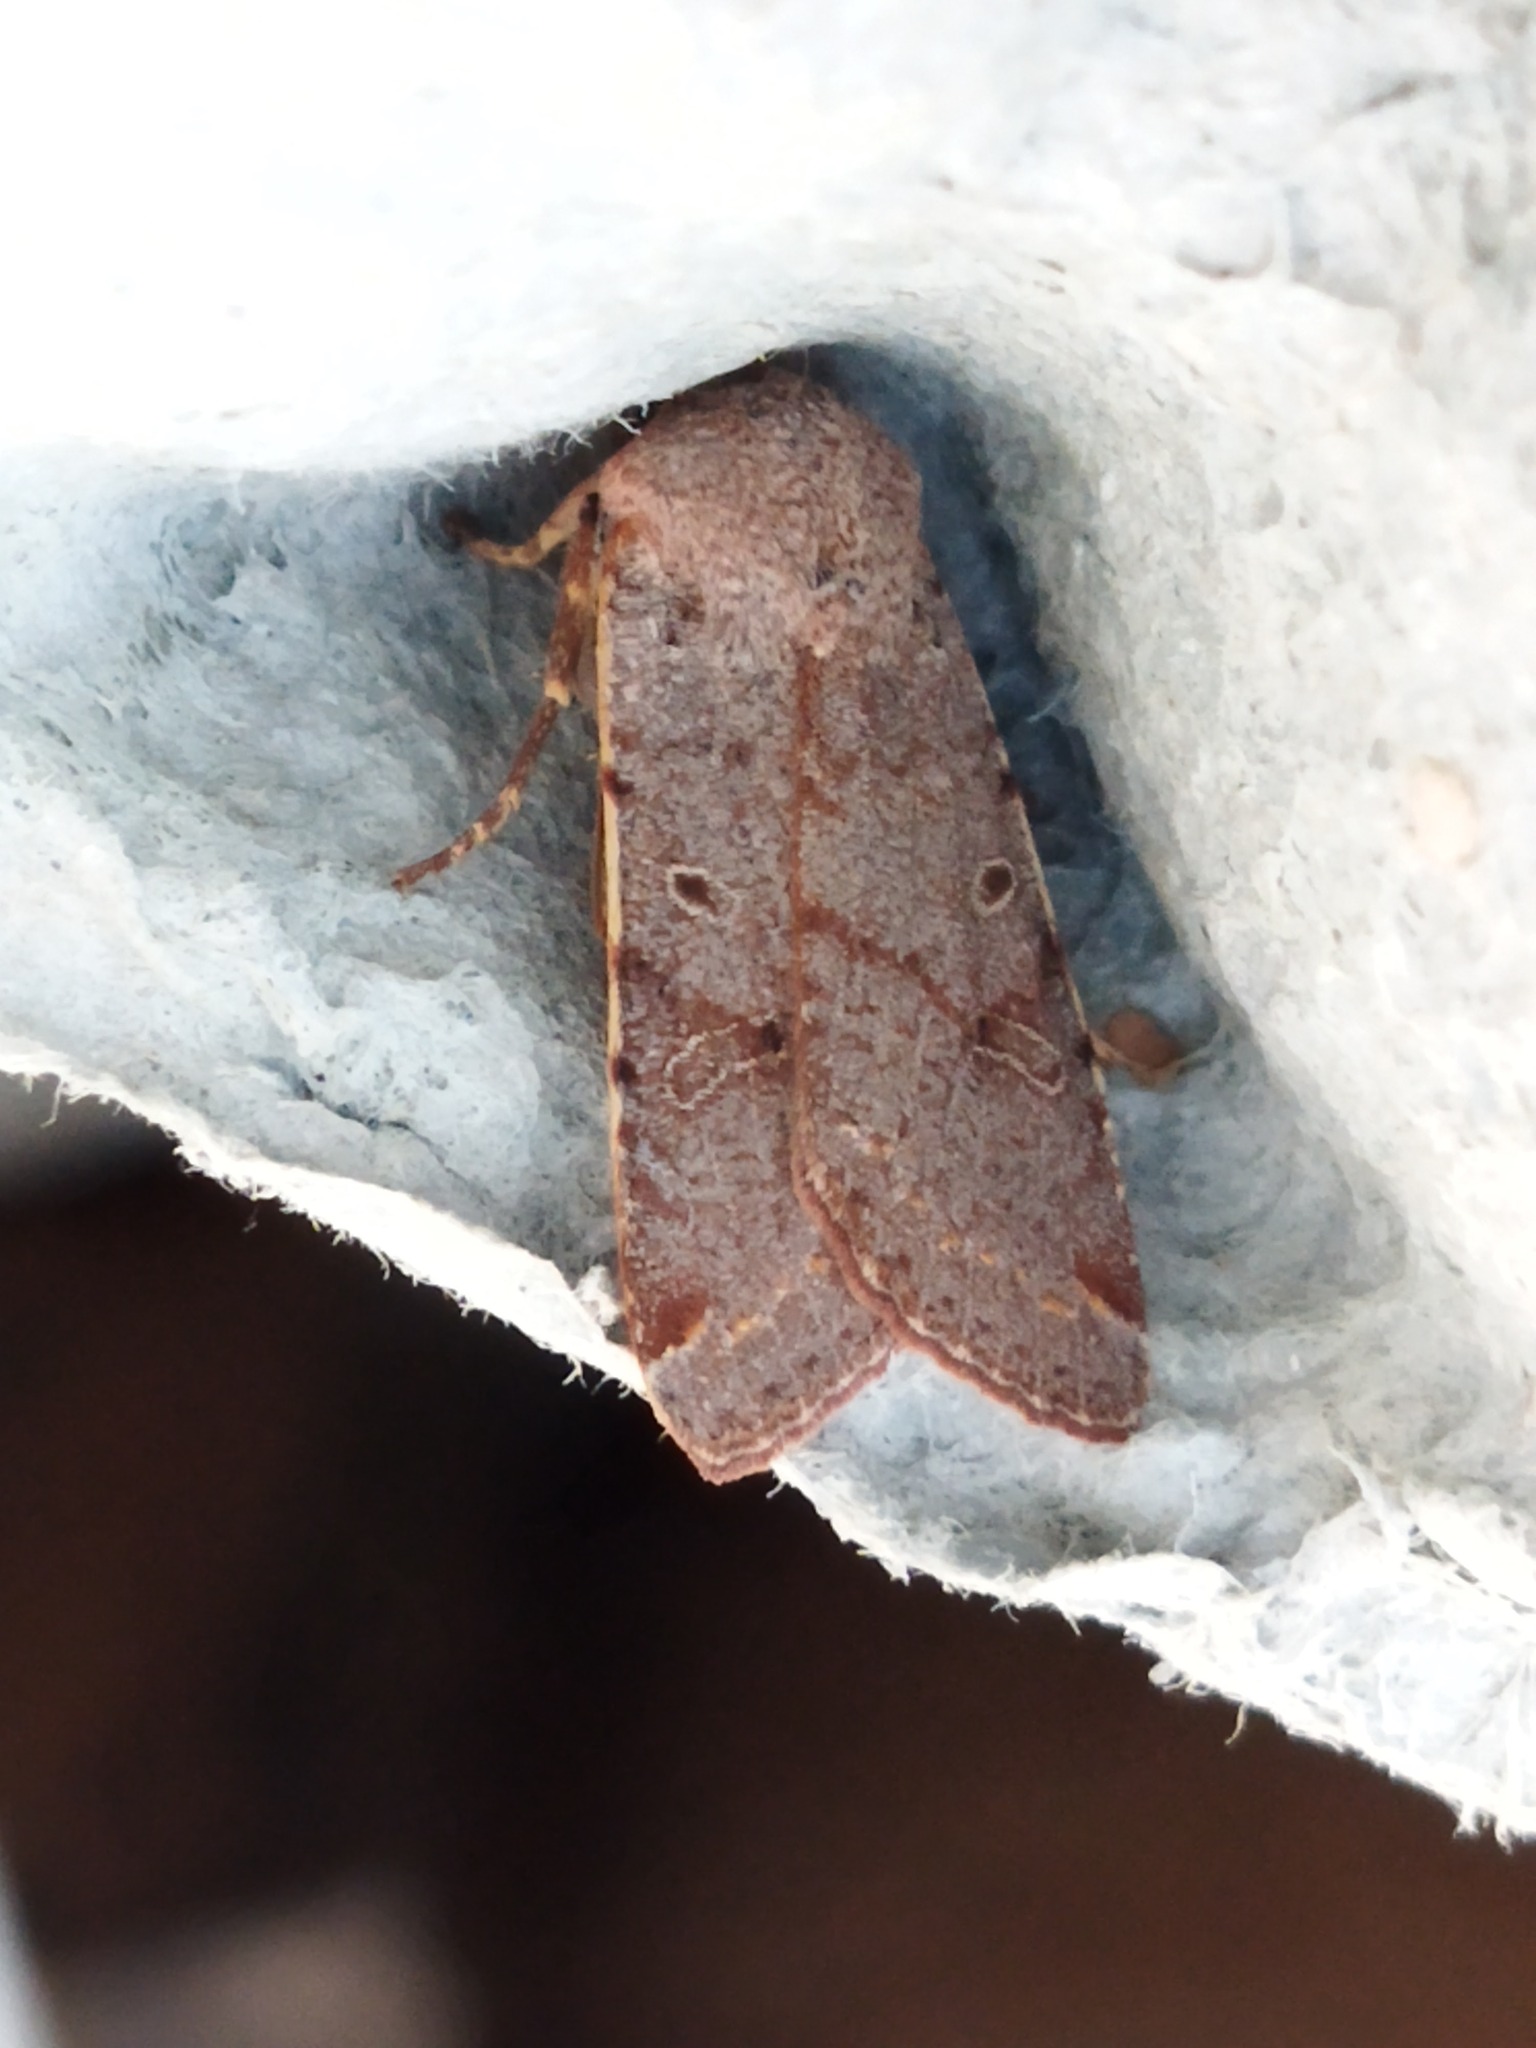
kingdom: Animalia
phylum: Arthropoda
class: Insecta
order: Lepidoptera
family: Noctuidae
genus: Agrochola
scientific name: Agrochola lychnidis
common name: Beaded chestnut
